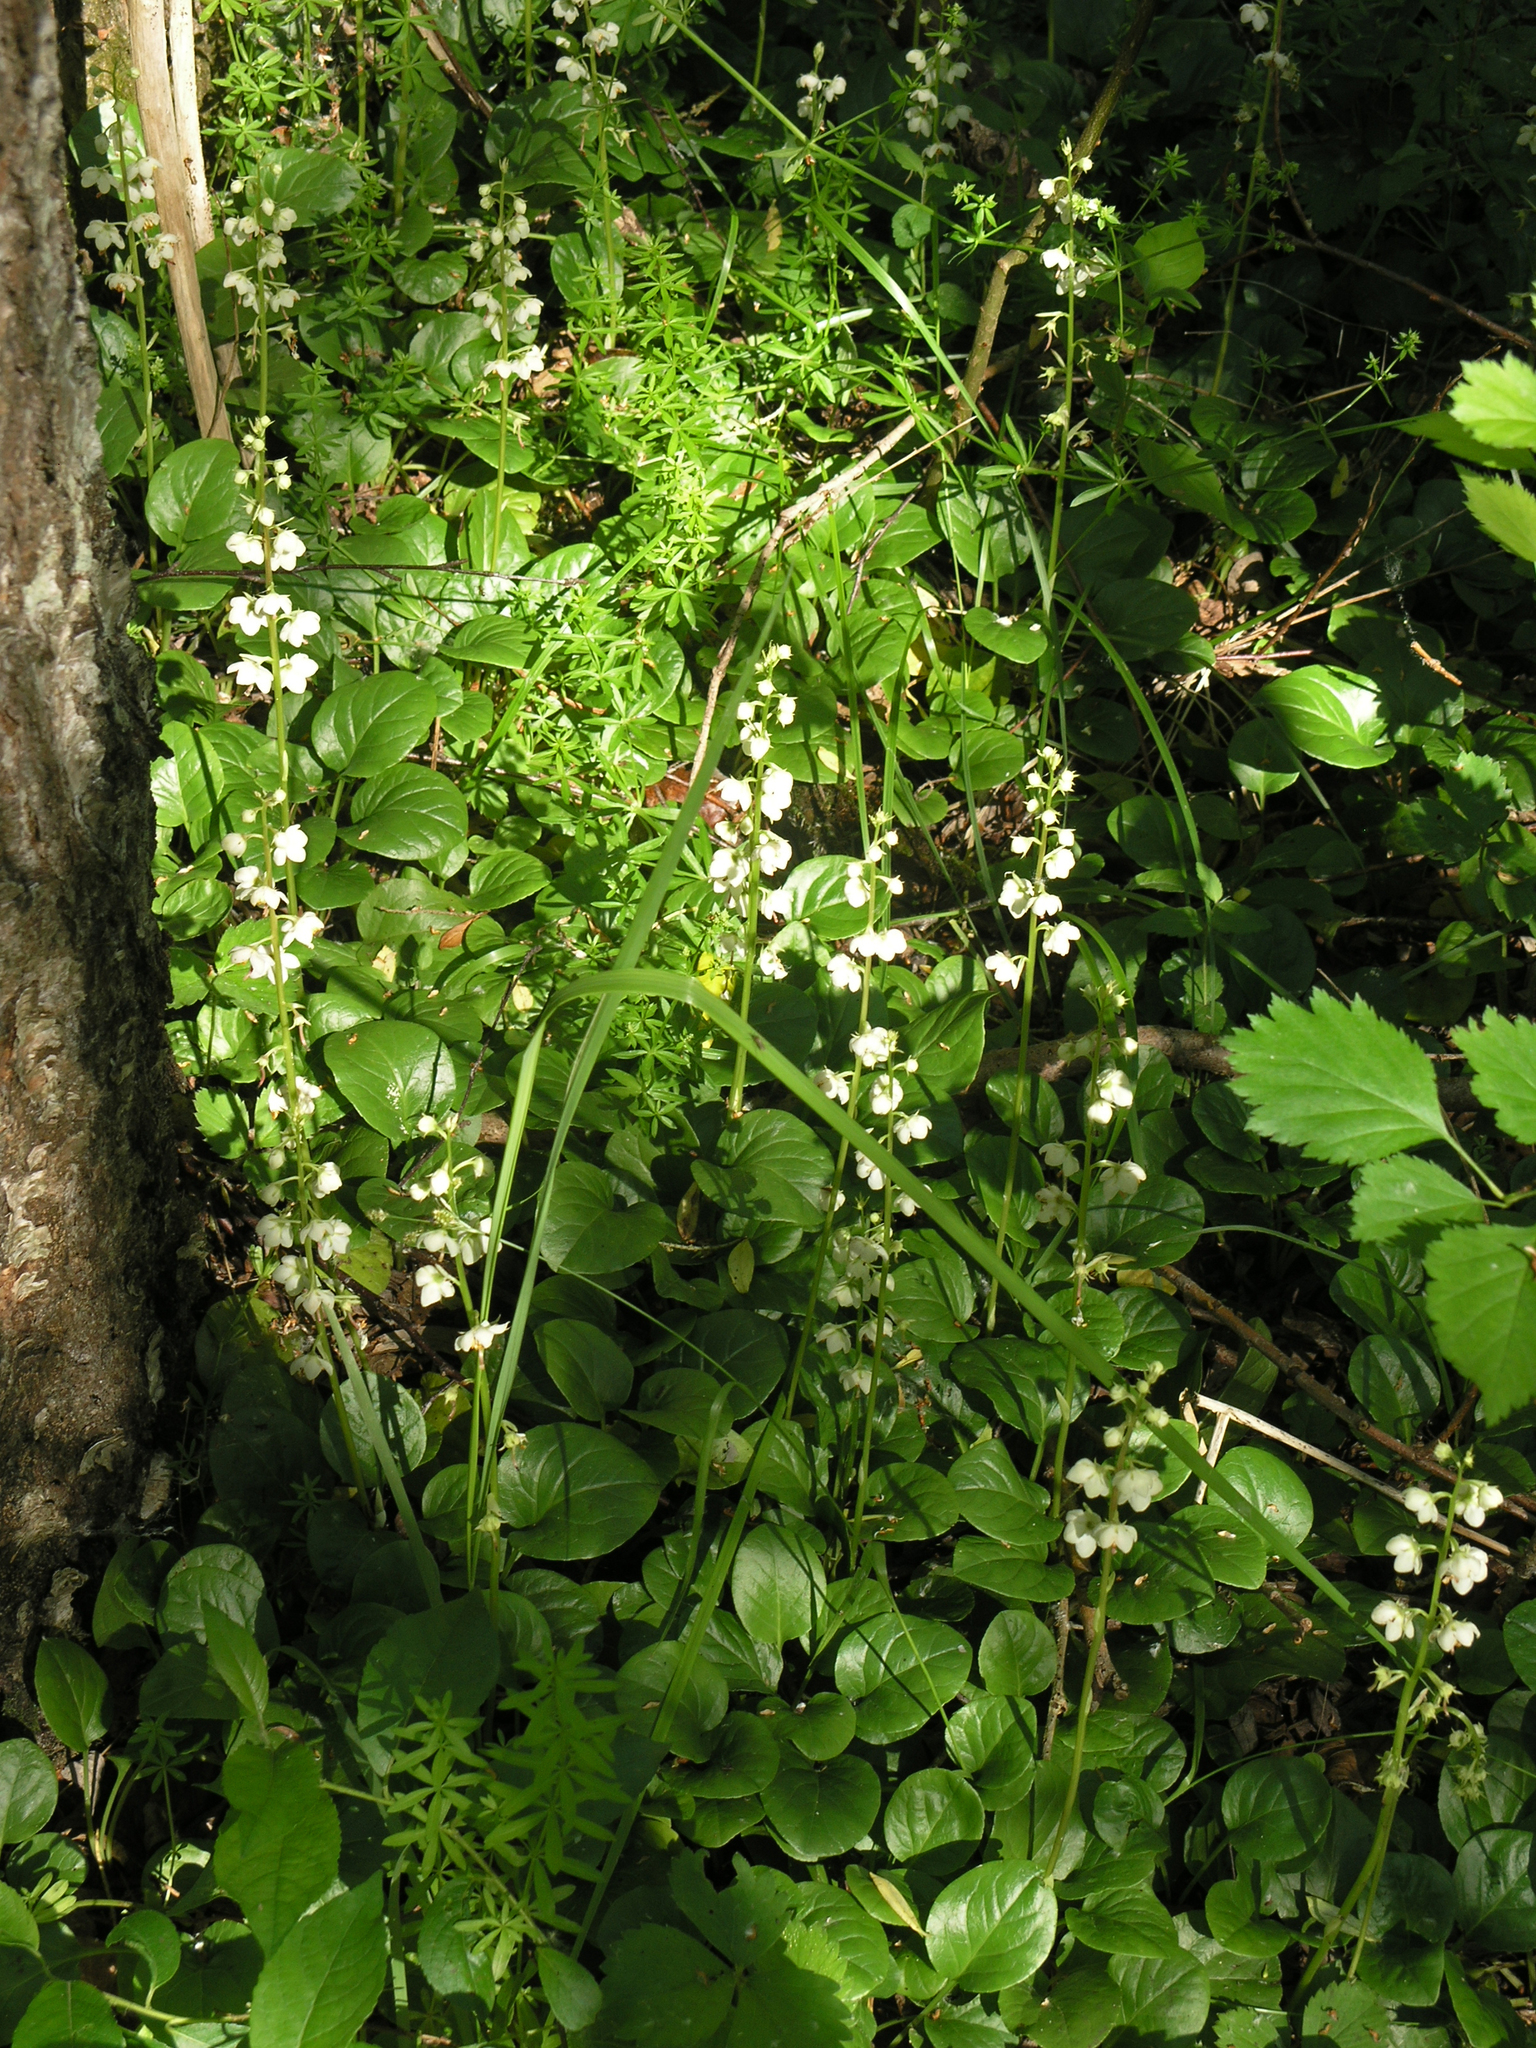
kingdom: Plantae
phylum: Tracheophyta
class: Magnoliopsida
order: Ericales
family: Ericaceae
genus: Pyrola
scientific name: Pyrola rotundifolia
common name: Round-leaved wintergreen
